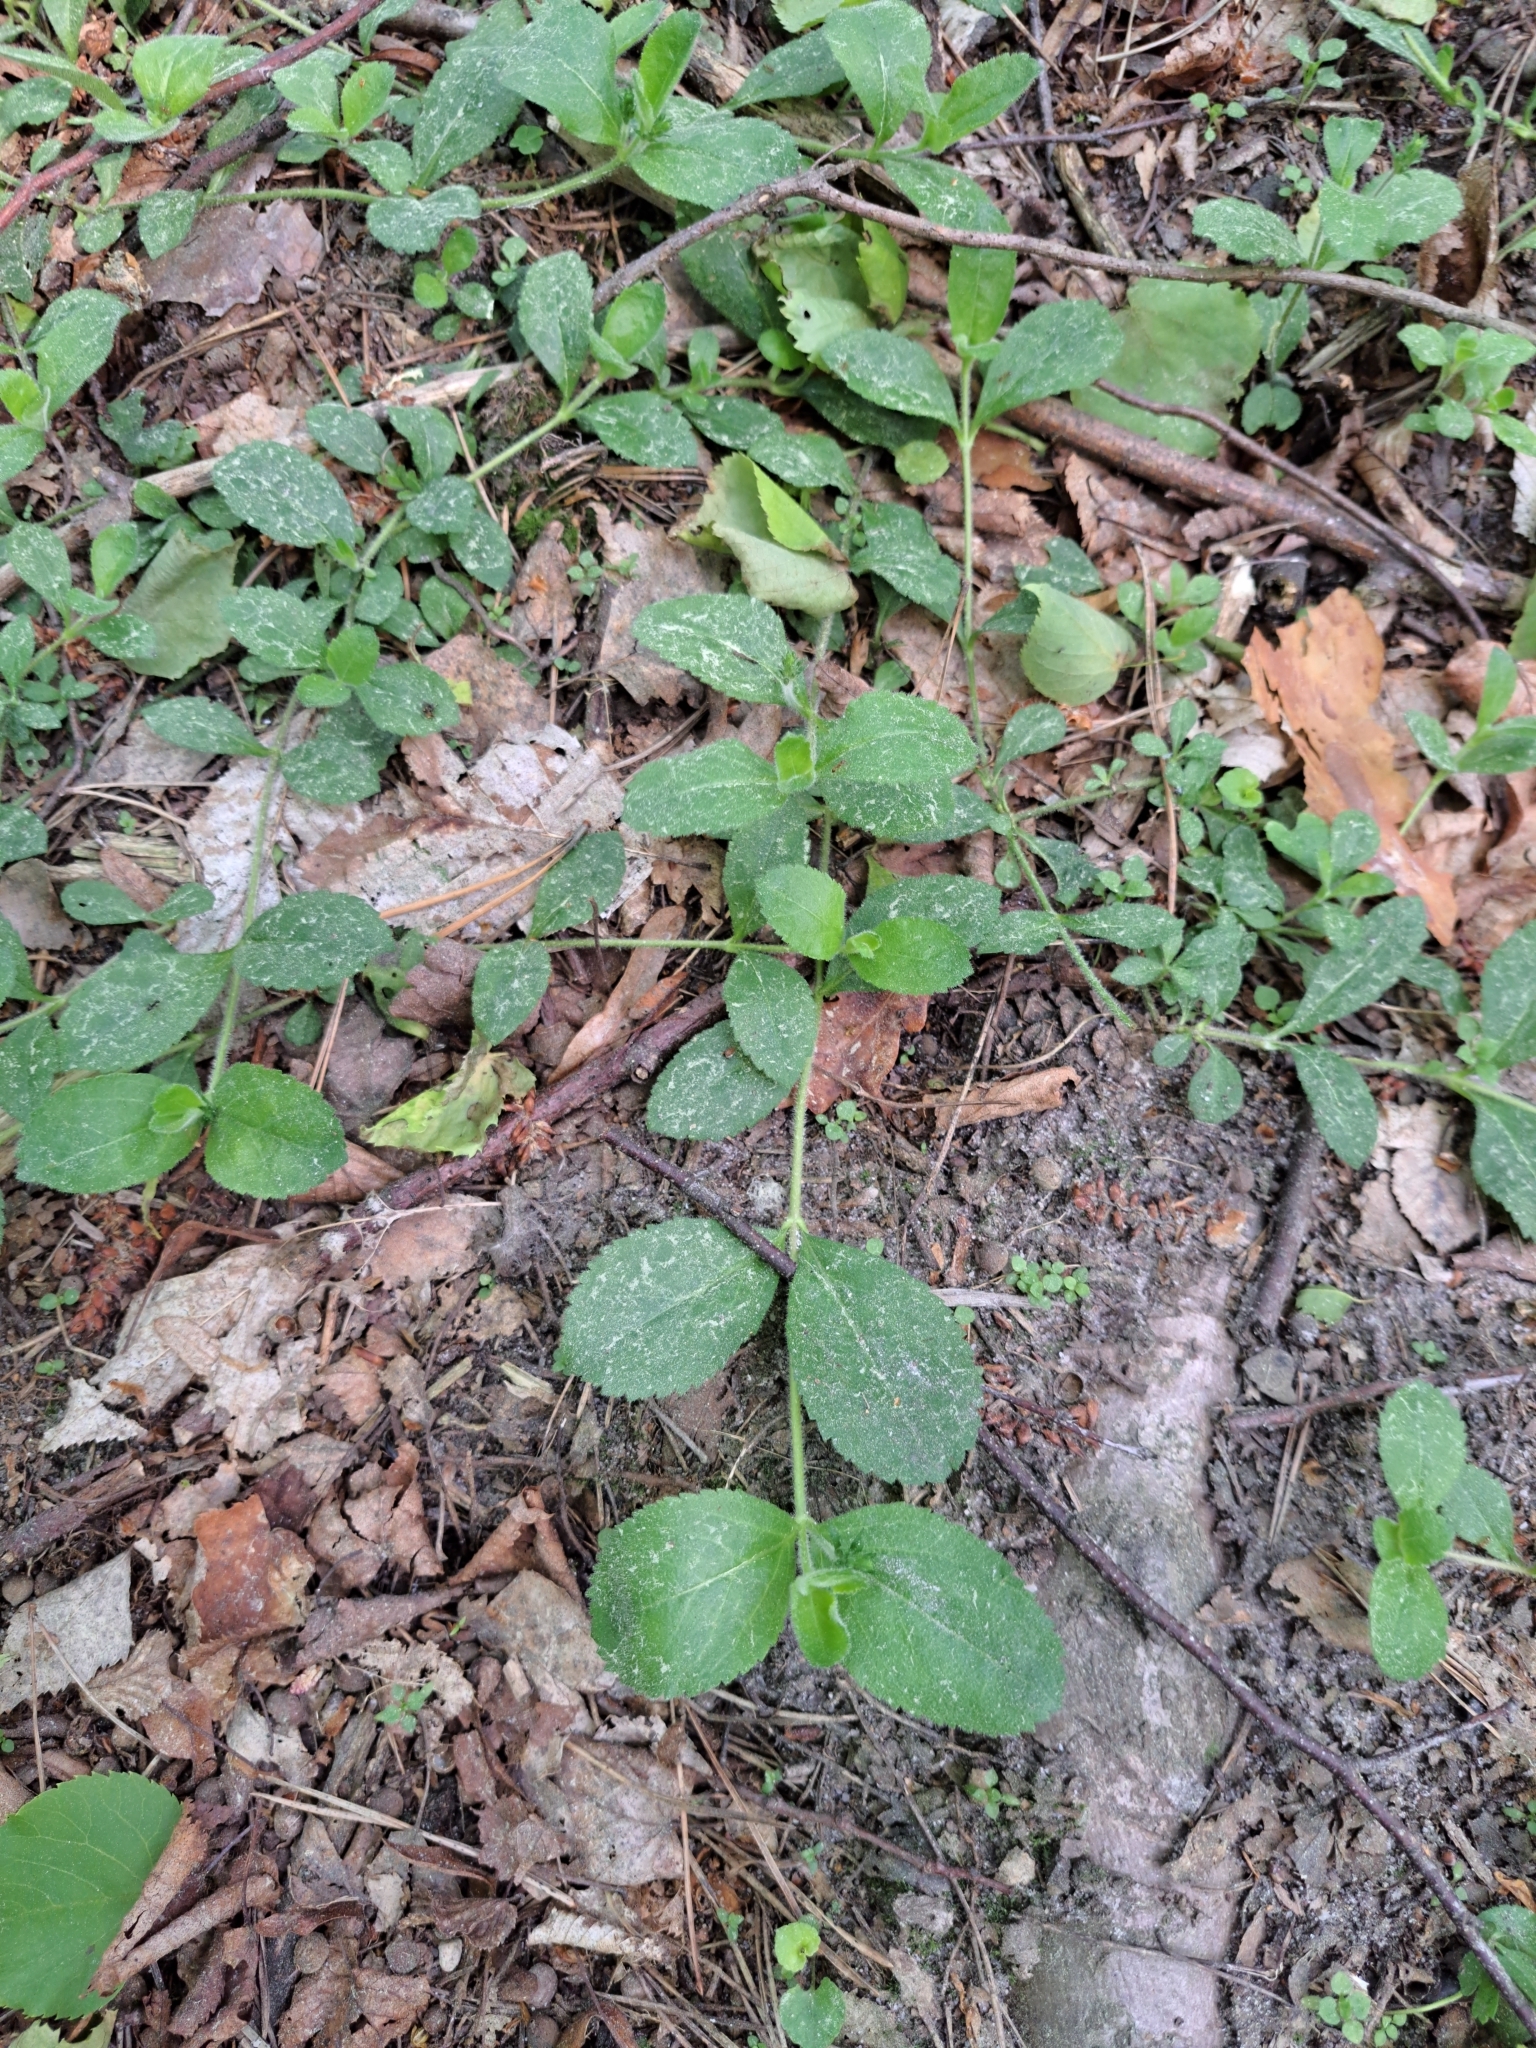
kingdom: Plantae
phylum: Tracheophyta
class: Magnoliopsida
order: Lamiales
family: Plantaginaceae
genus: Veronica
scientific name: Veronica officinalis
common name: Common speedwell
